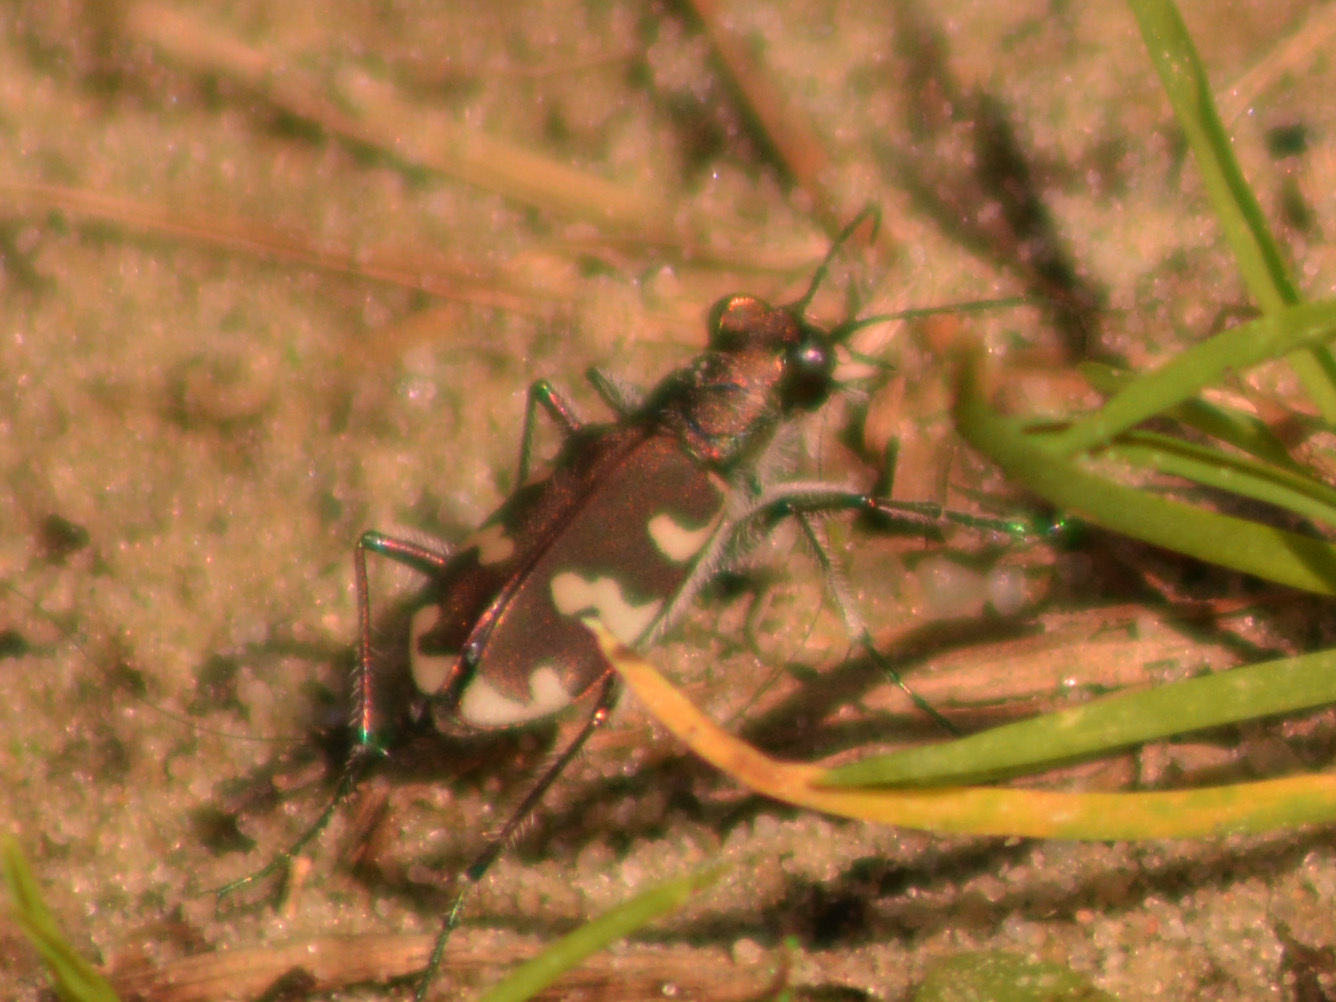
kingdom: Animalia
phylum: Arthropoda
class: Insecta
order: Coleoptera
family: Carabidae
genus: Cicindela
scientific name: Cicindela hybrida
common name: Northern dune tiger beetle
